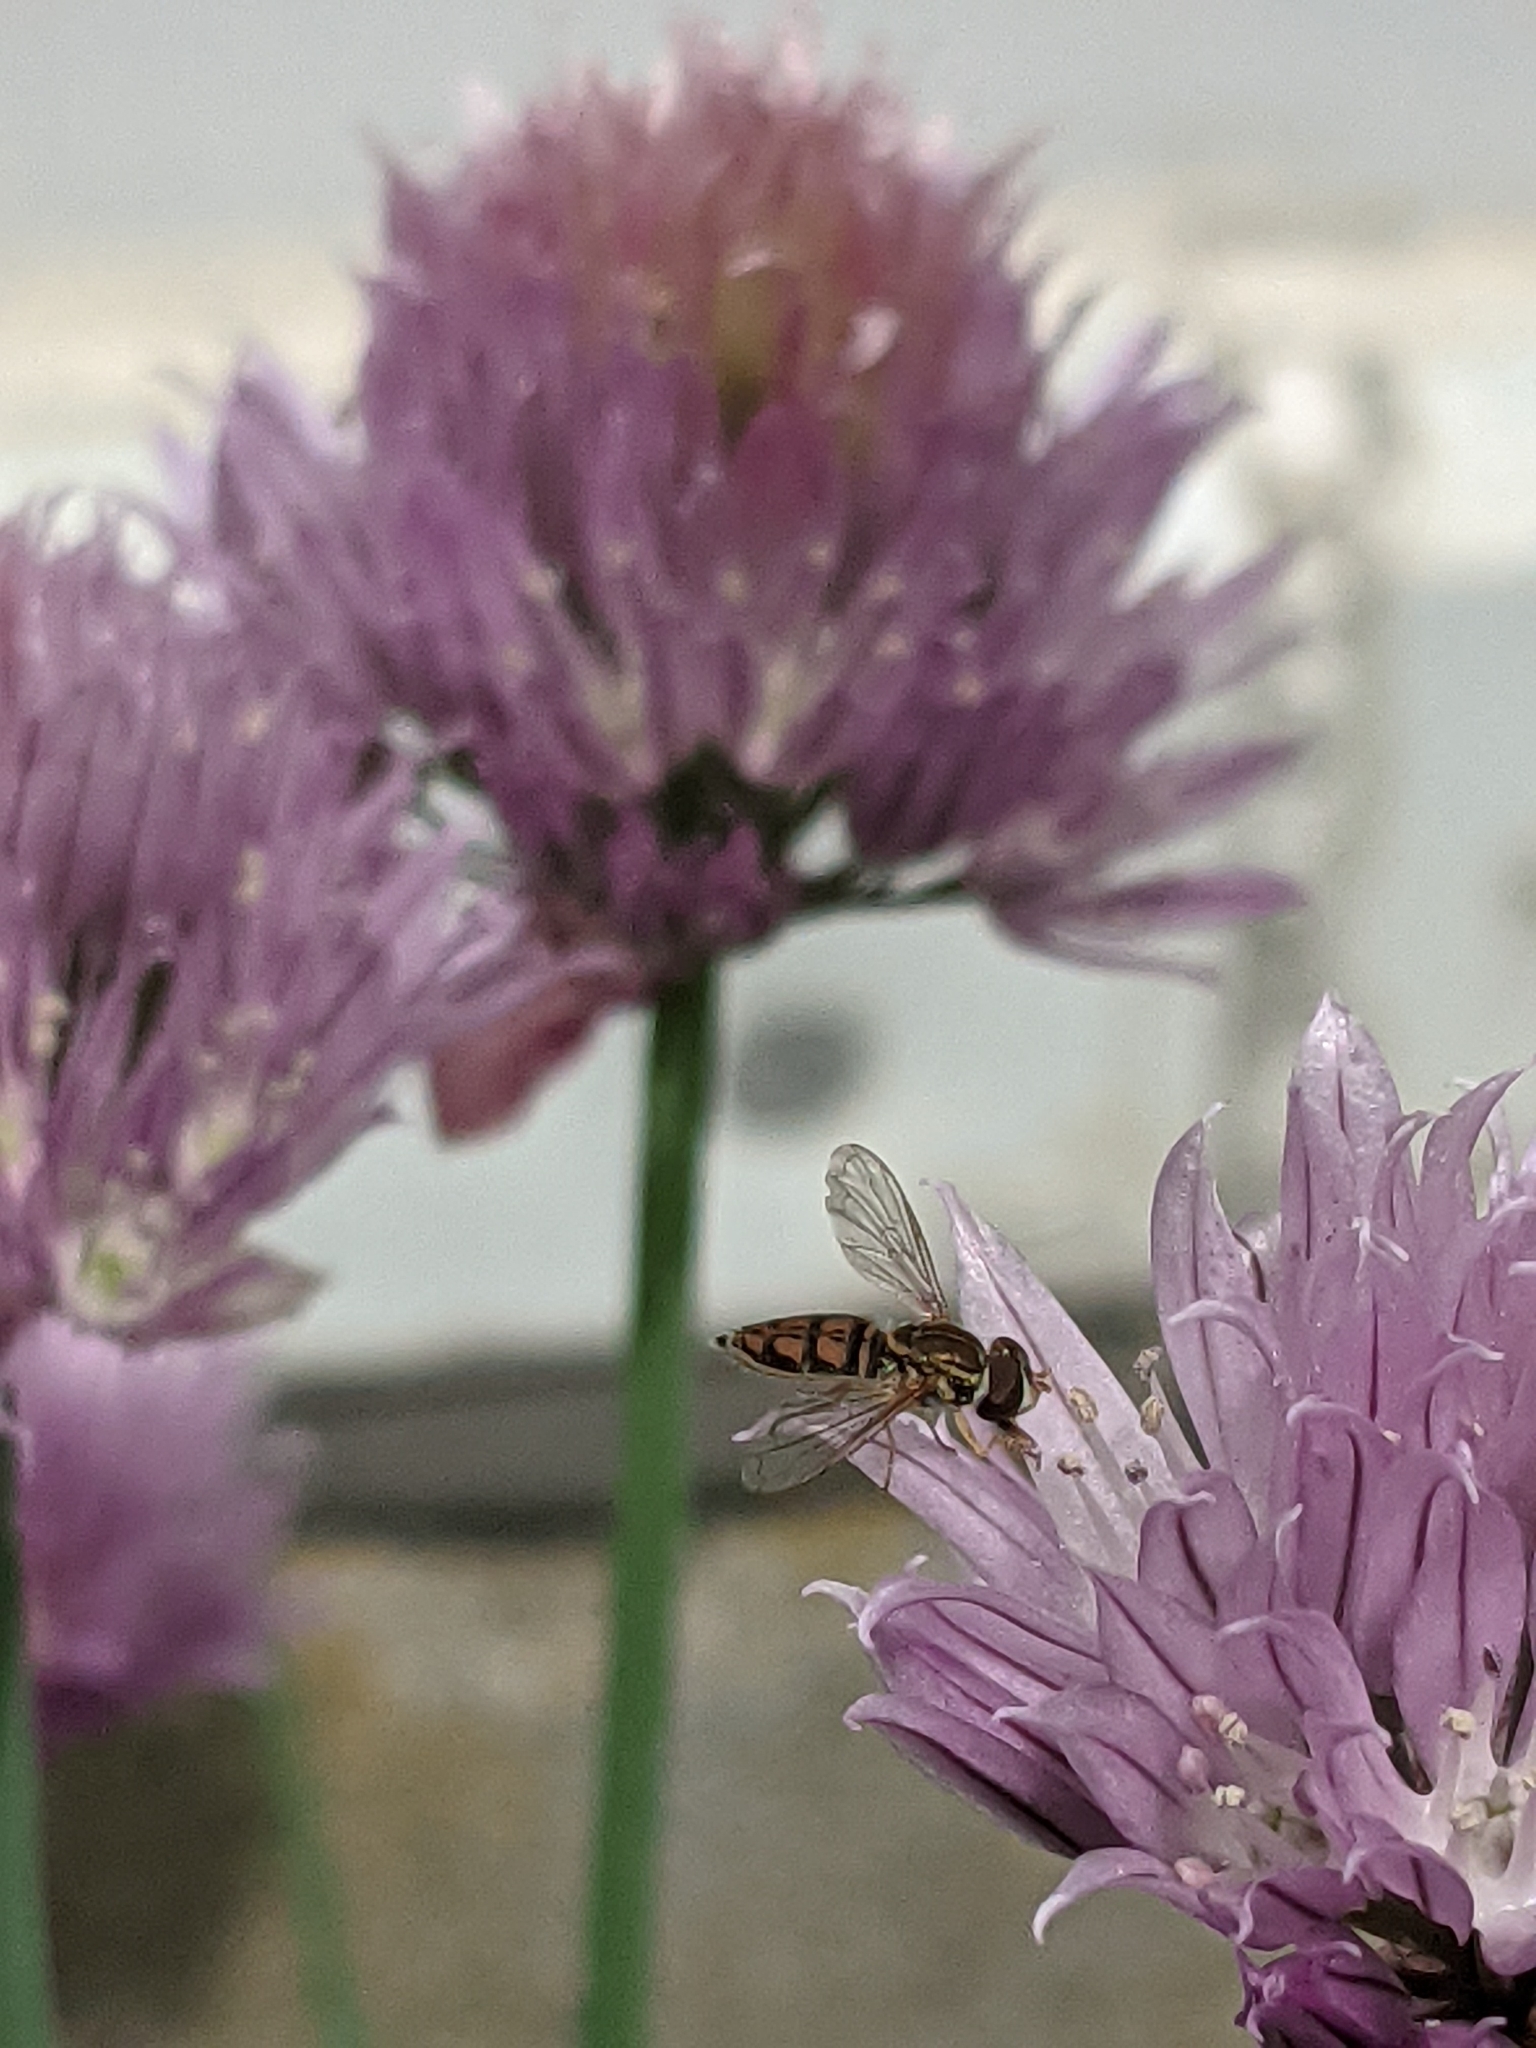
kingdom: Animalia
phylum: Arthropoda
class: Insecta
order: Diptera
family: Syrphidae
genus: Toxomerus
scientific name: Toxomerus marginatus
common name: Syrphid fly
